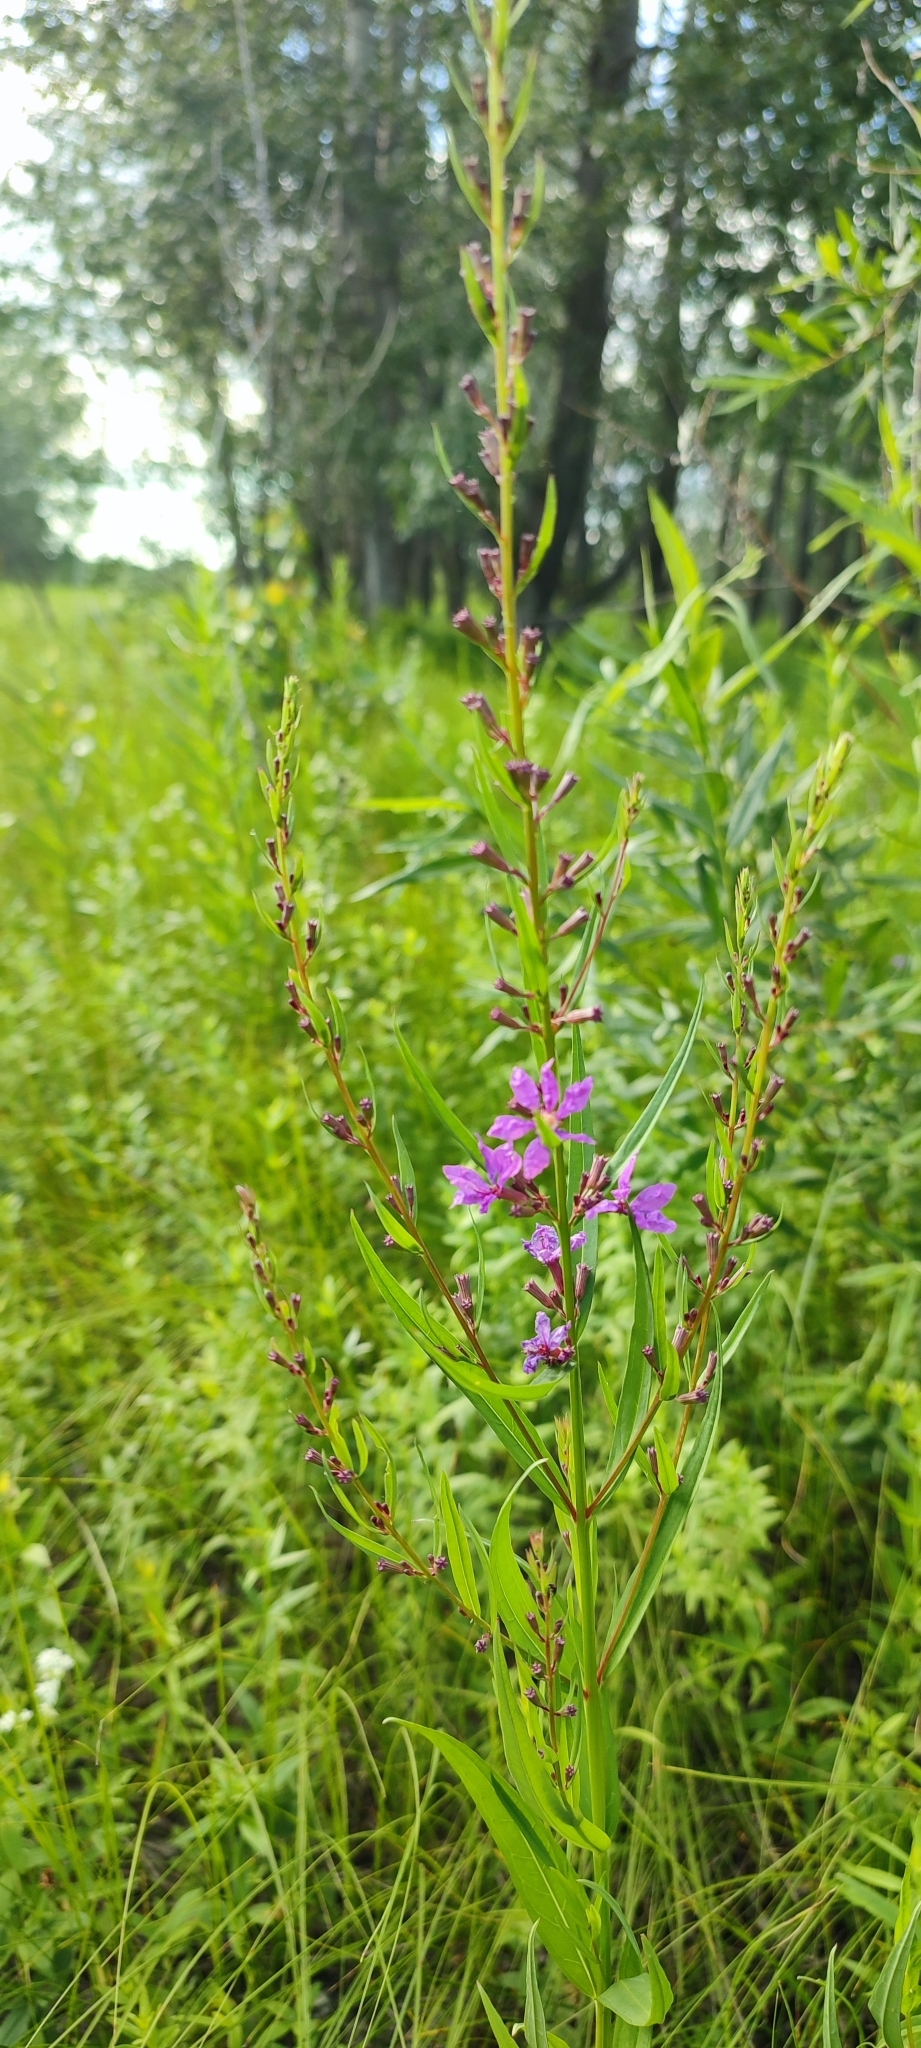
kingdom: Plantae
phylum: Tracheophyta
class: Magnoliopsida
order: Myrtales
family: Lythraceae
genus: Lythrum
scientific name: Lythrum salicaria
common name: Purple loosestrife
